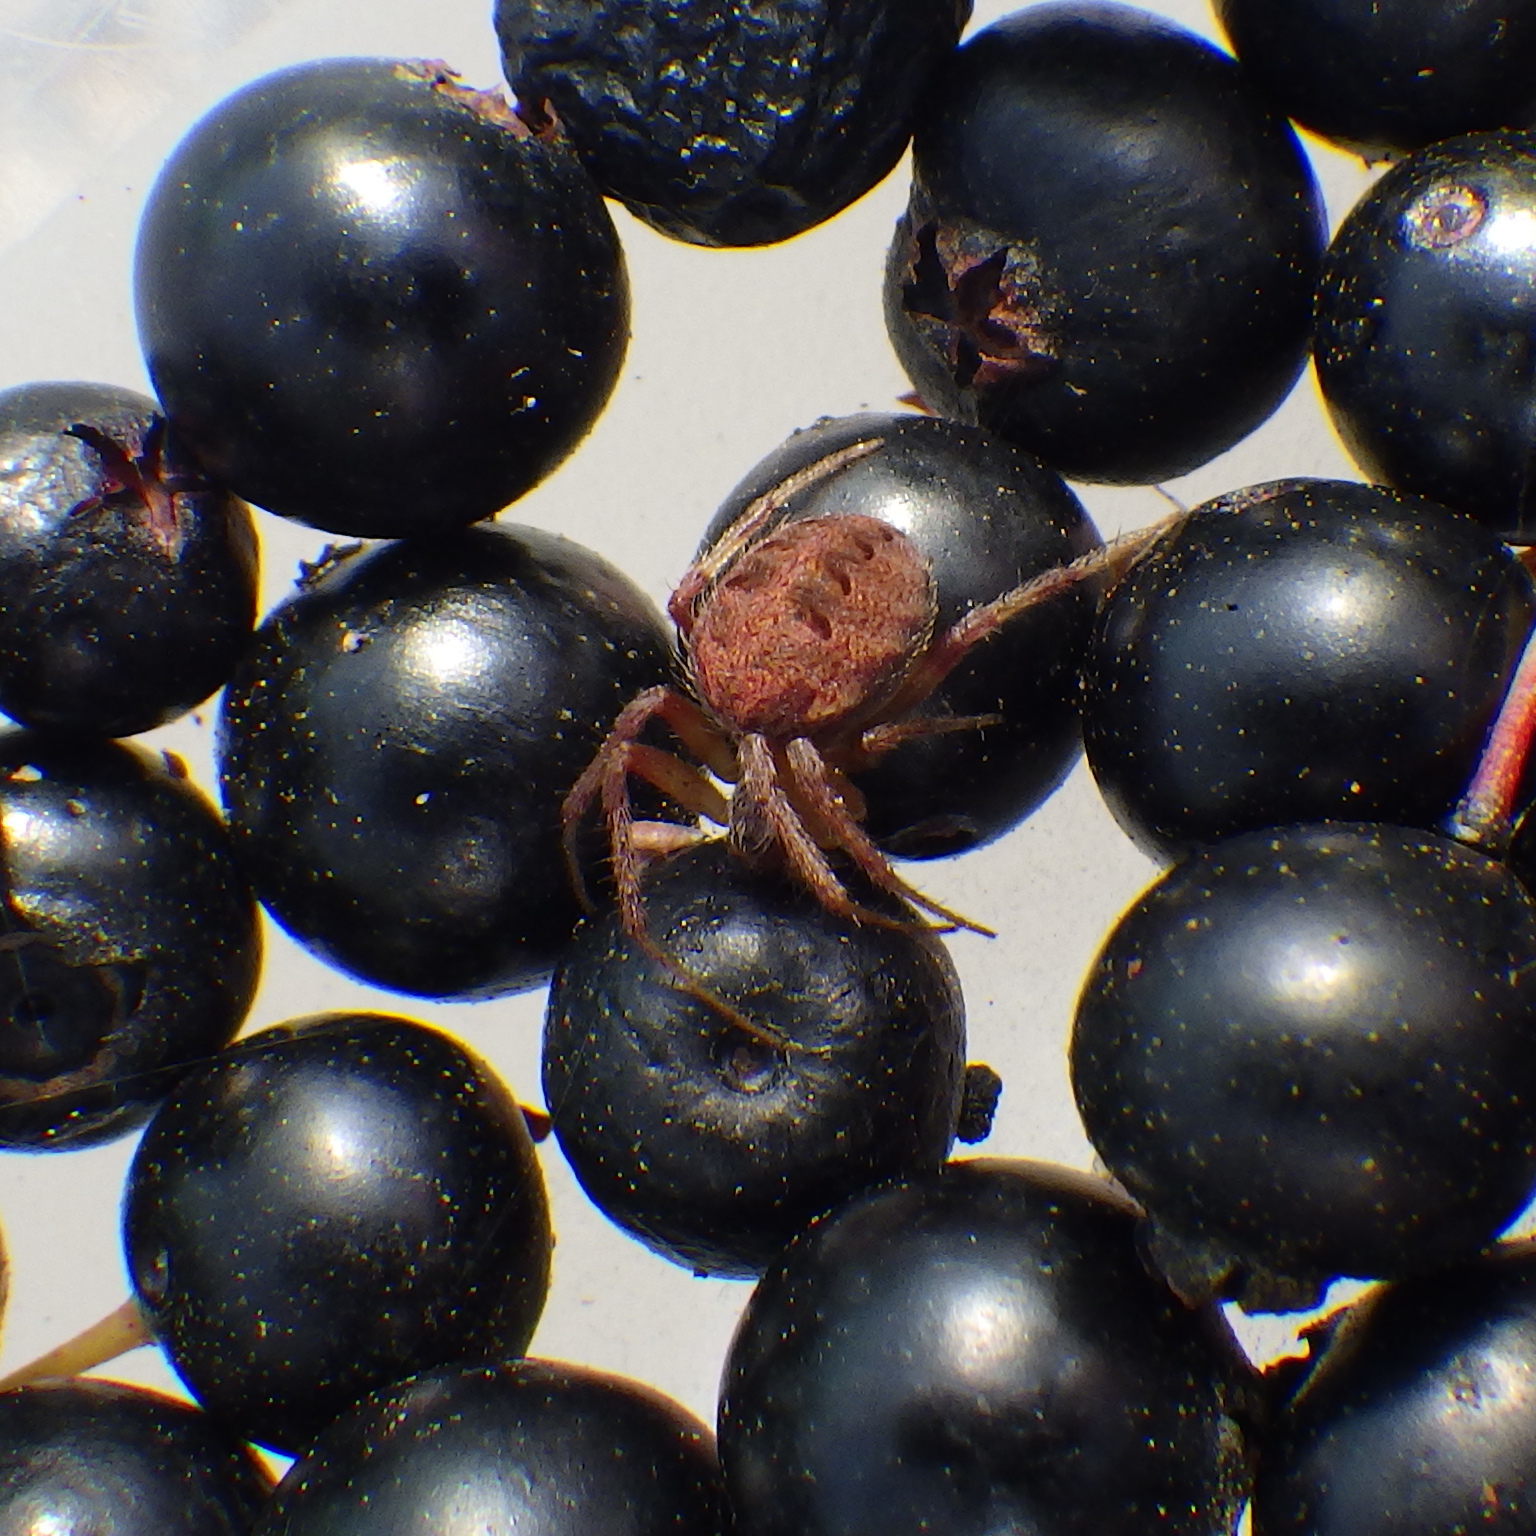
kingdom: Animalia
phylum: Arthropoda
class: Arachnida
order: Araneae
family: Araneidae
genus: Neoscona
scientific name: Neoscona arabesca
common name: Orb weavers
